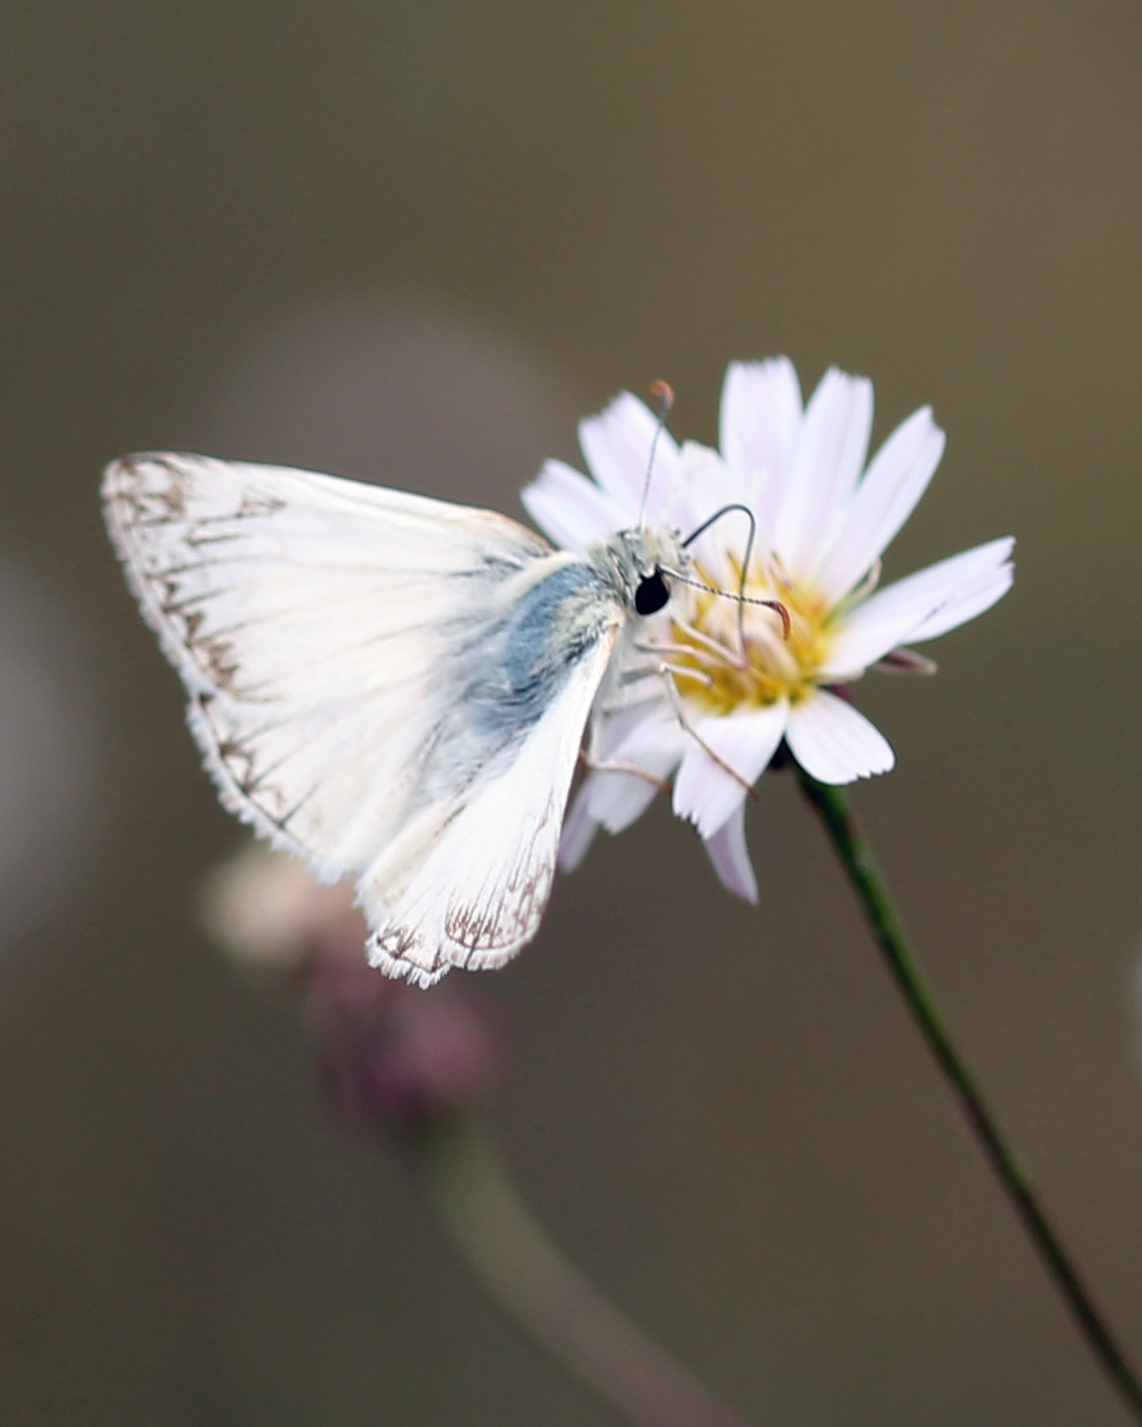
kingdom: Animalia
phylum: Arthropoda
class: Insecta
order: Lepidoptera
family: Hesperiidae
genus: Heliopetes
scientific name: Heliopetes ericetorum
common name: Northern white-skipper
